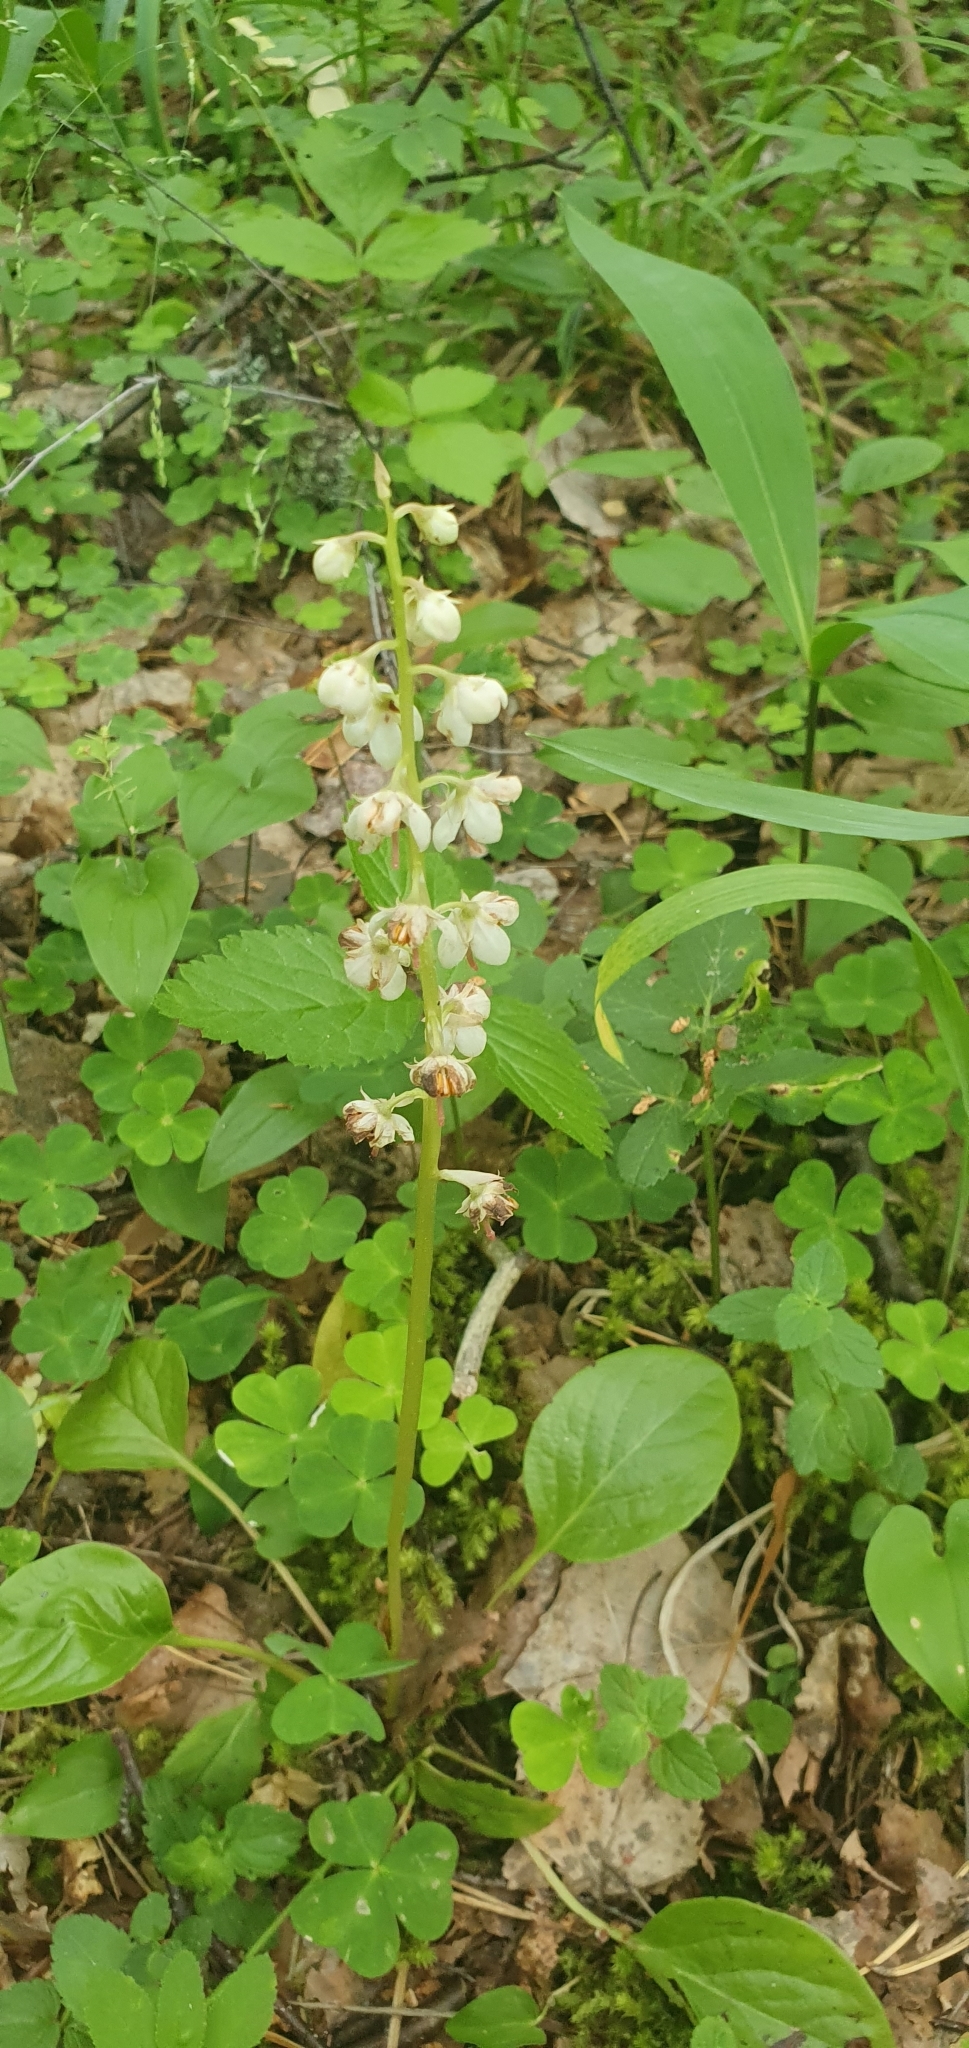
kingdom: Plantae
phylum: Tracheophyta
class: Magnoliopsida
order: Ericales
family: Ericaceae
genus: Pyrola
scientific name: Pyrola rotundifolia
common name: Round-leaved wintergreen
